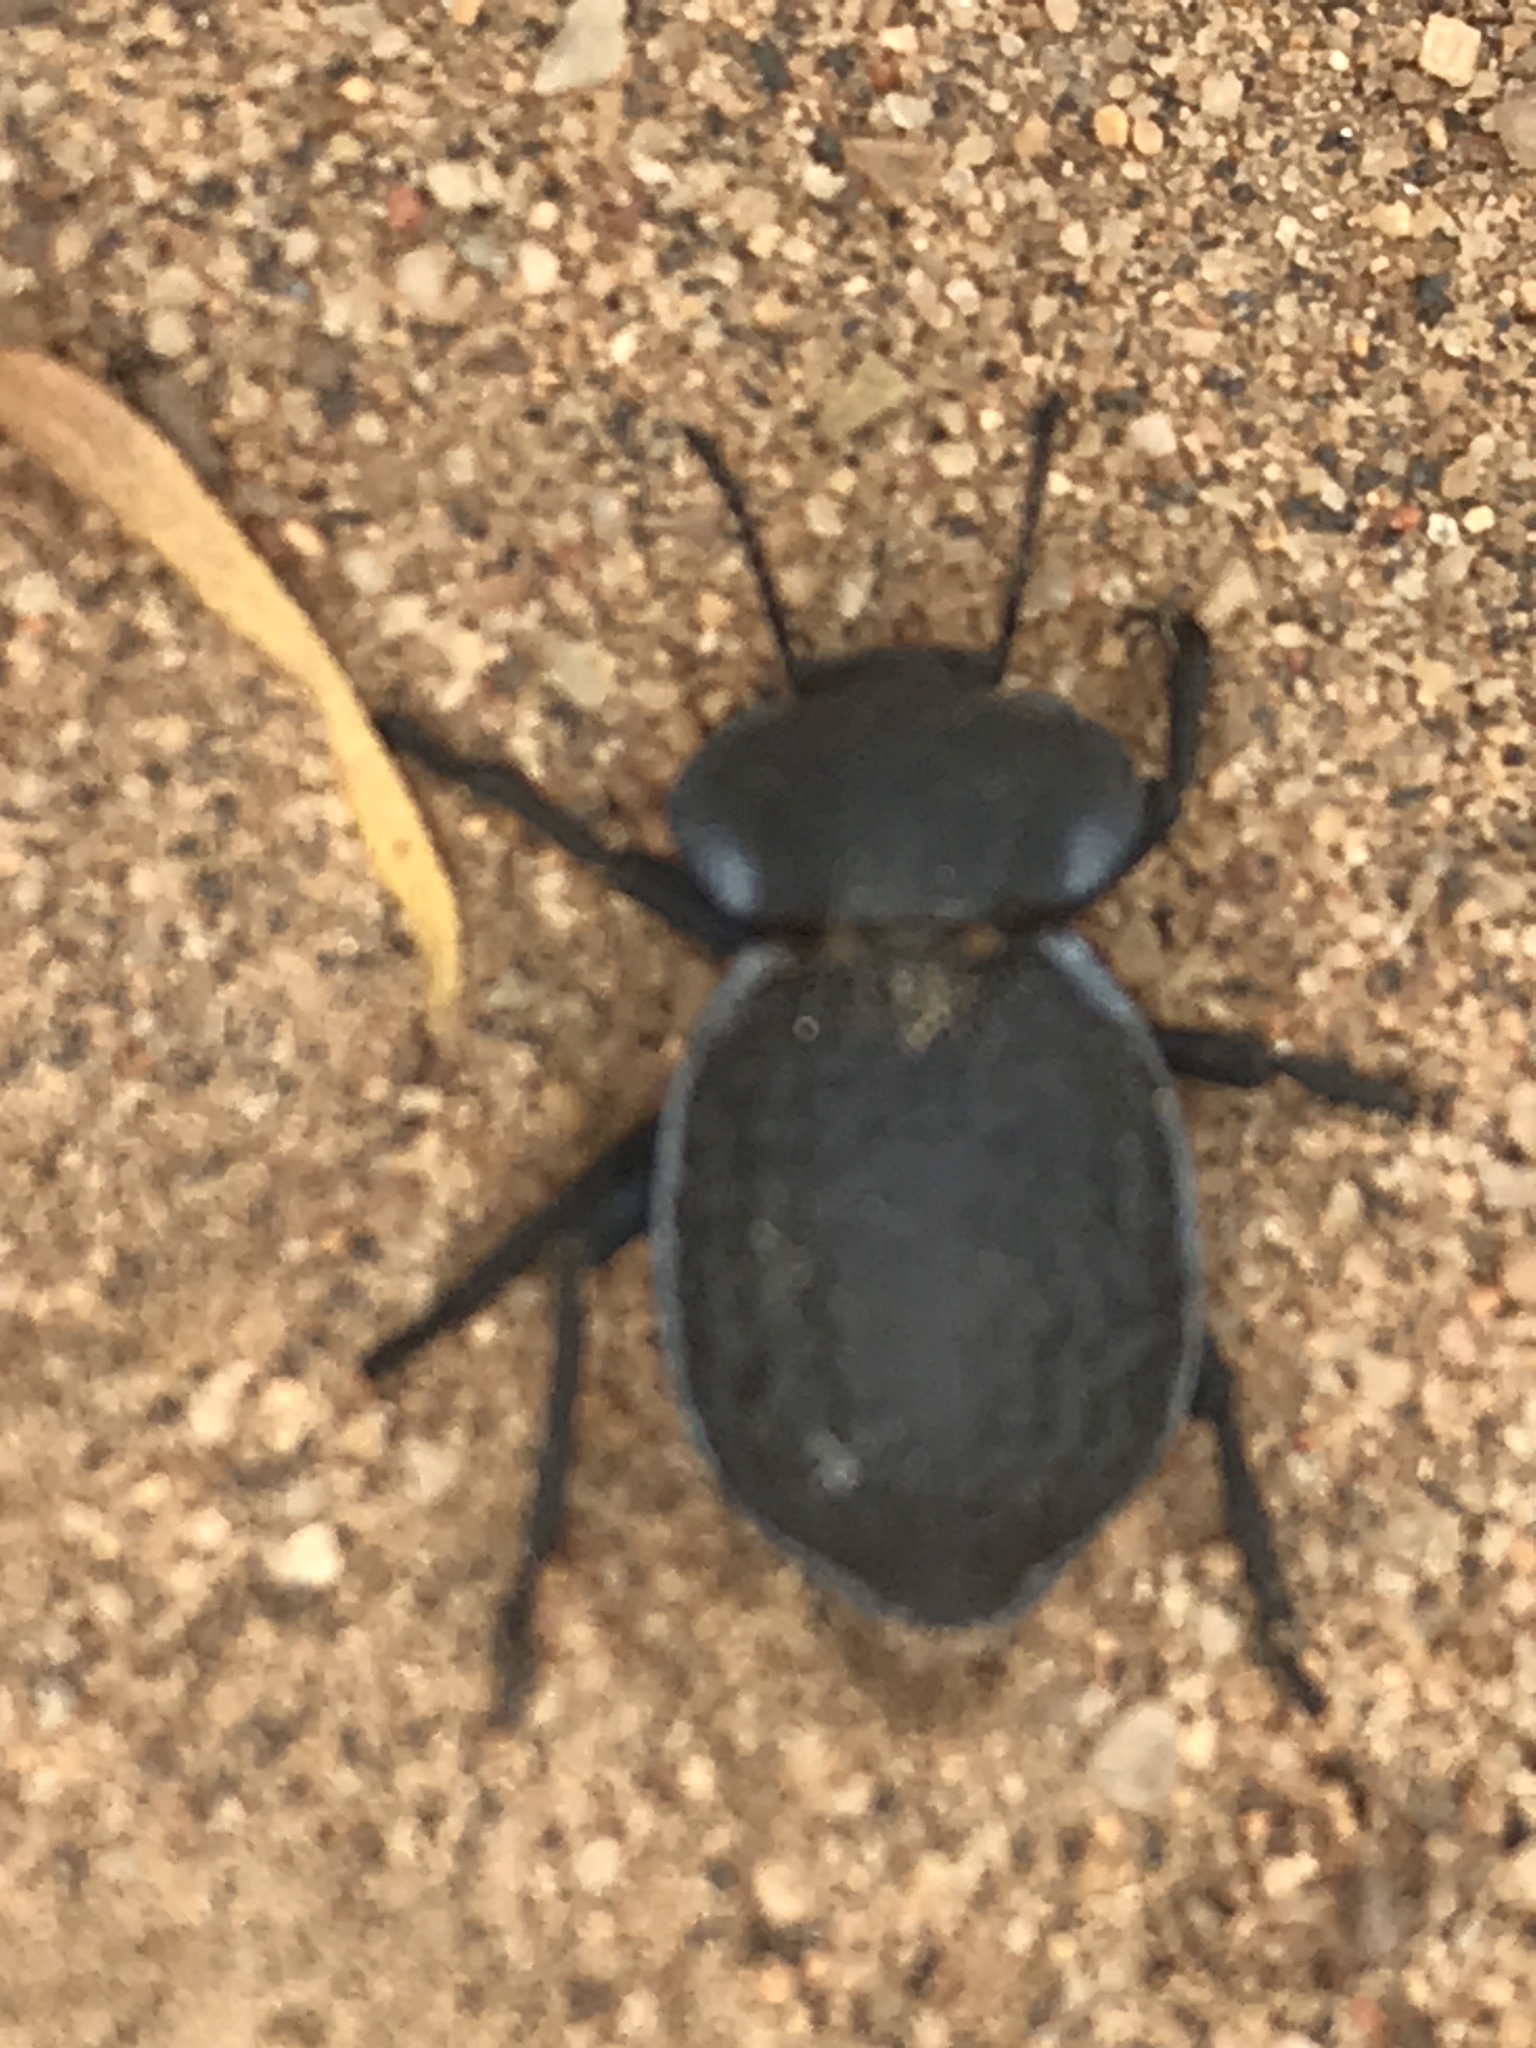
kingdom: Animalia
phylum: Arthropoda
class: Insecta
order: Coleoptera
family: Tenebrionidae
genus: Microschatia
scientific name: Microschatia inaequalis
